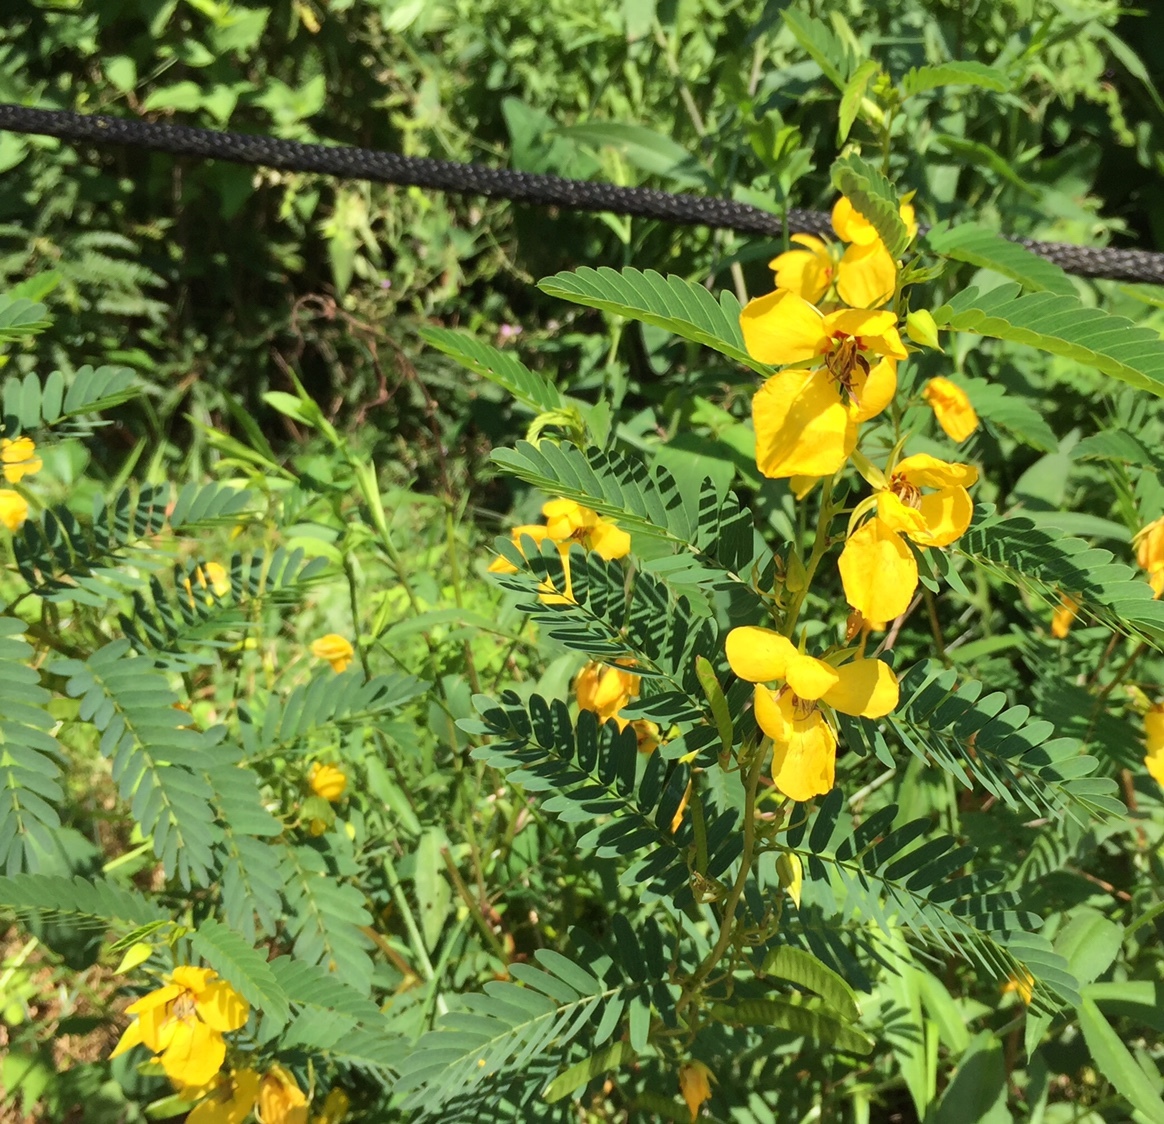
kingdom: Plantae
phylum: Tracheophyta
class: Magnoliopsida
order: Fabales
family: Fabaceae
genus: Chamaecrista
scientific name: Chamaecrista fasciculata
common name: Golden cassia
